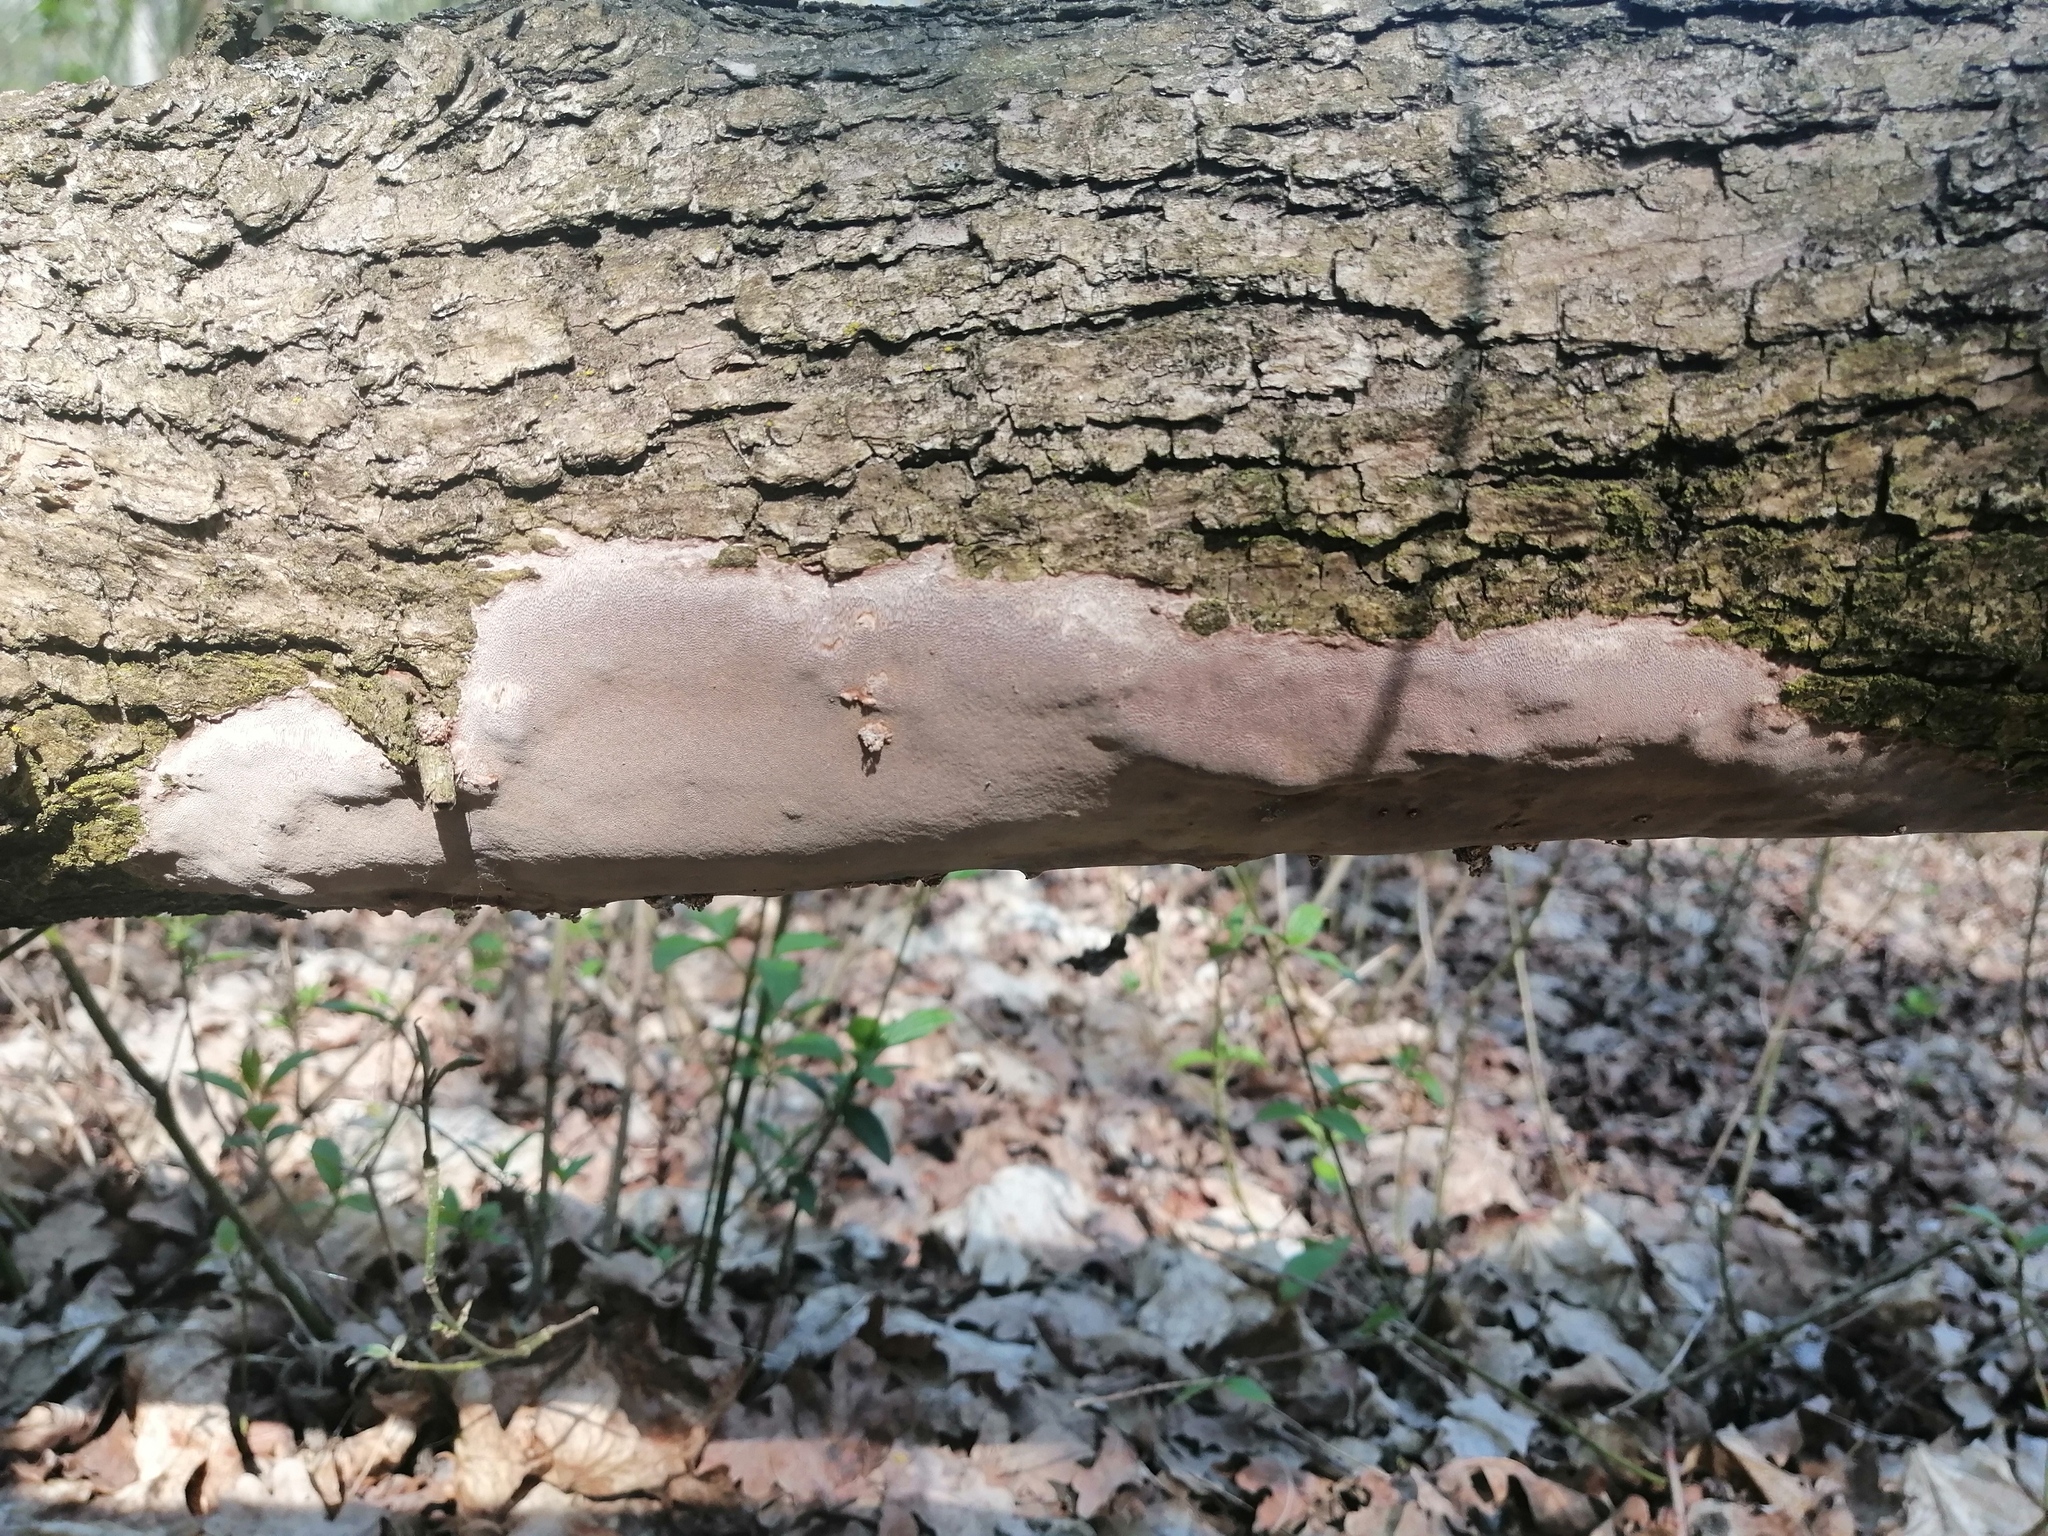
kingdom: Fungi
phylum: Basidiomycota
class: Agaricomycetes
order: Hymenochaetales
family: Hymenochaetaceae
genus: Fomitiporia
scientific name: Fomitiporia punctata
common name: Elbowpatch crust
